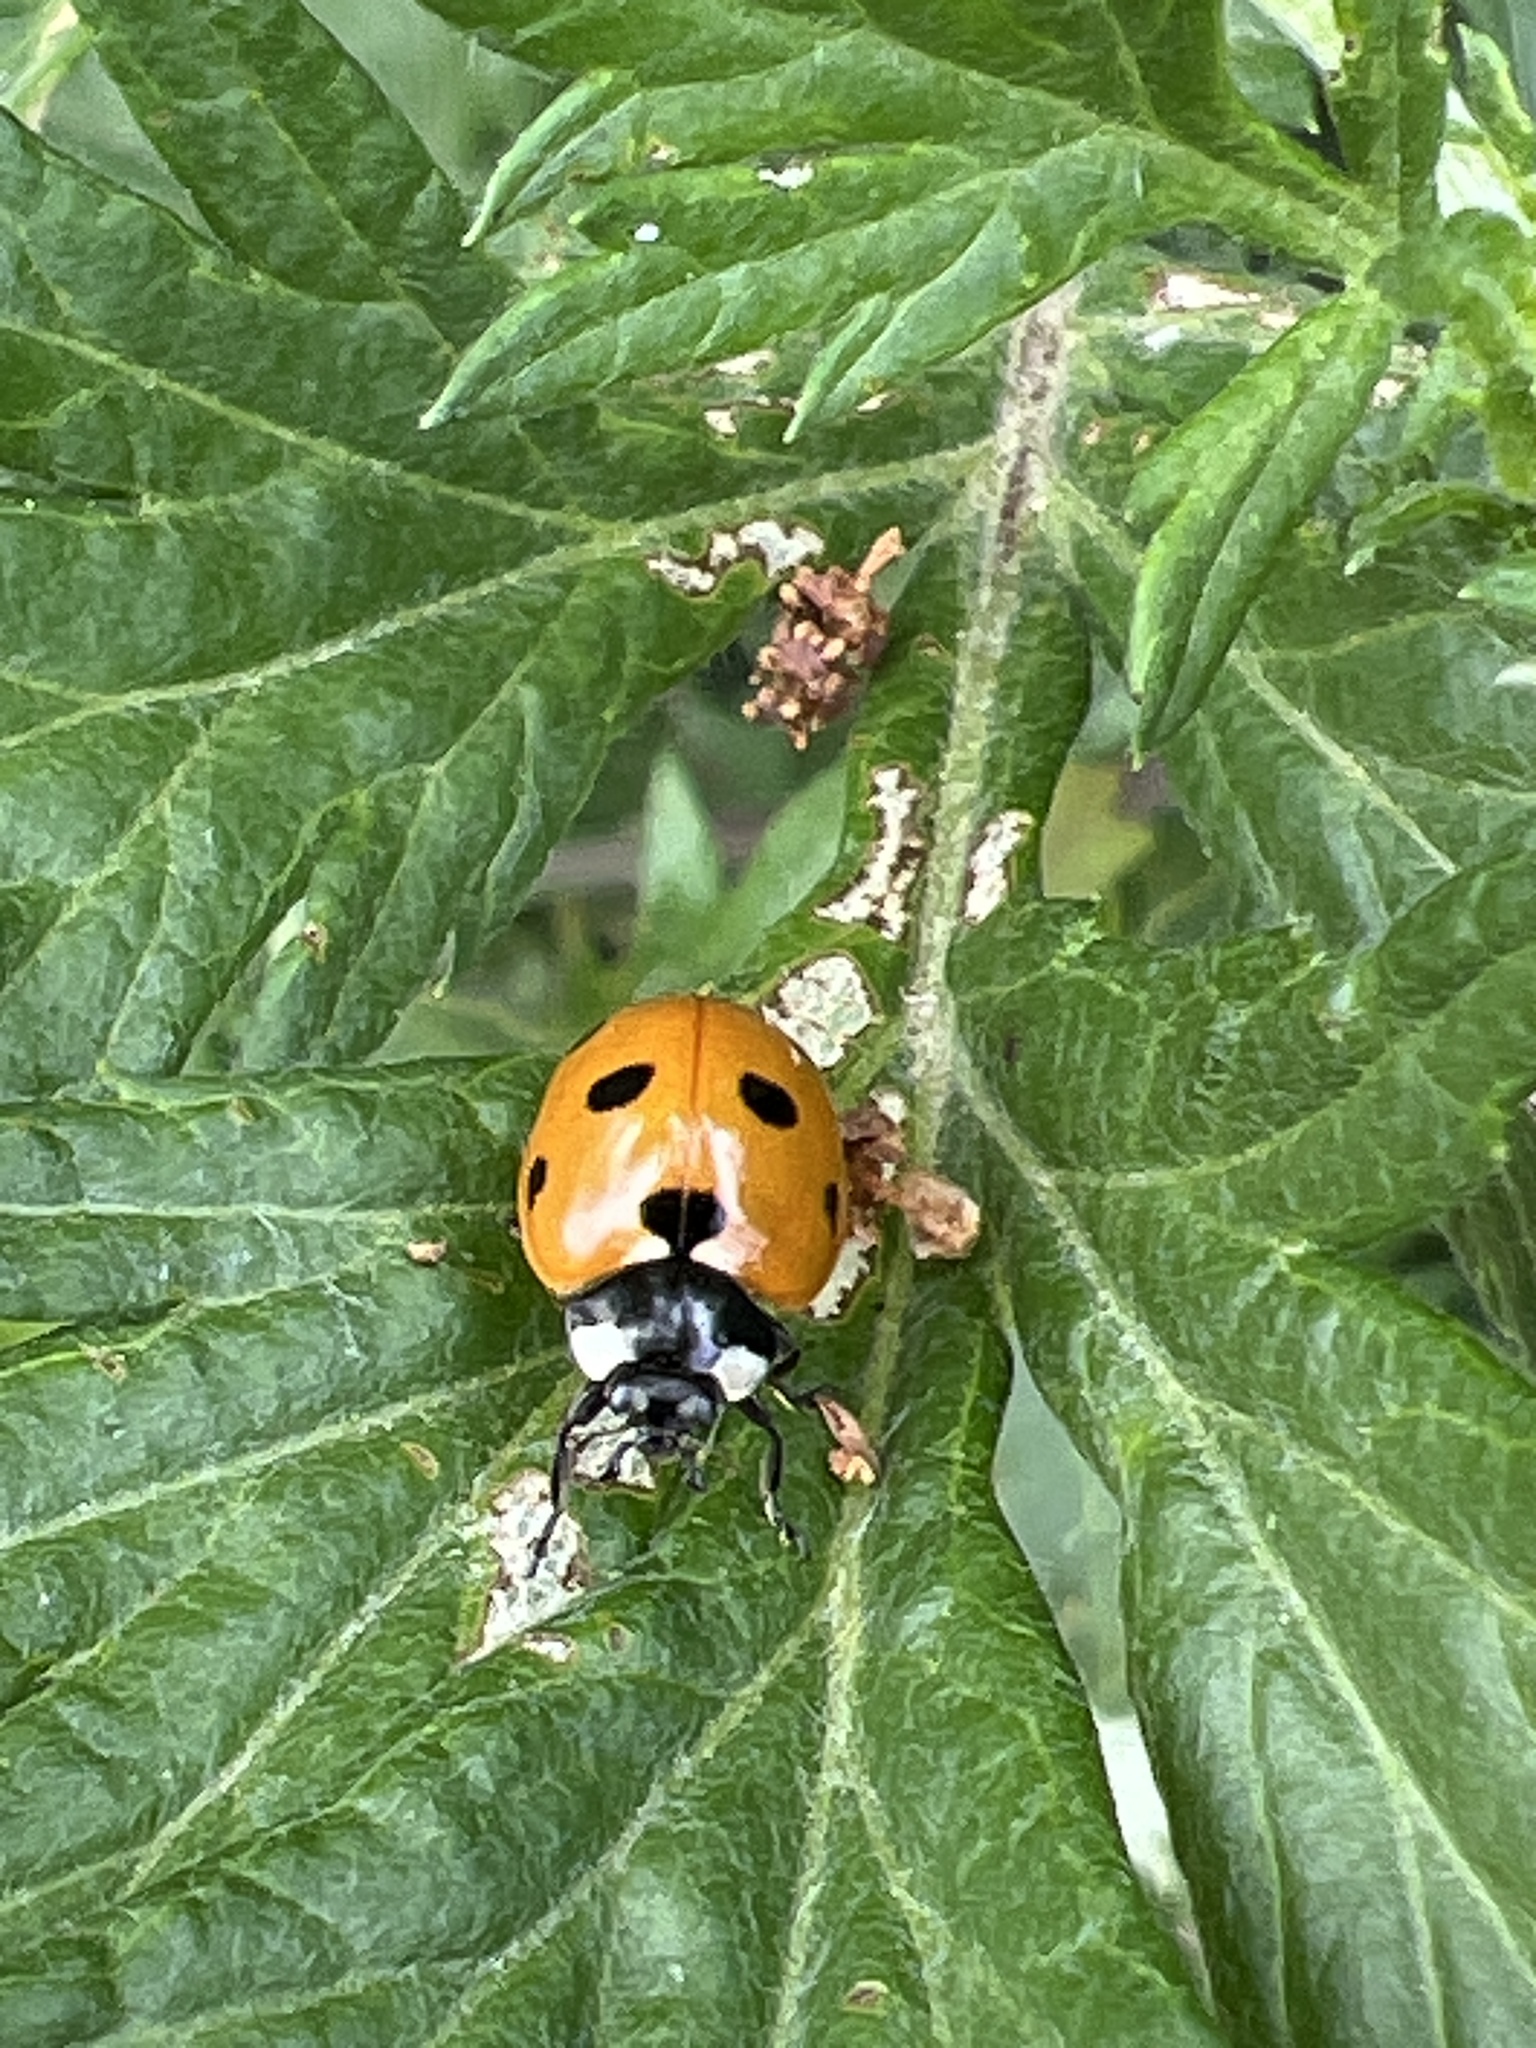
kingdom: Animalia
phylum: Arthropoda
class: Insecta
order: Coleoptera
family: Coccinellidae
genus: Coccinella
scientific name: Coccinella septempunctata
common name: Sevenspotted lady beetle
